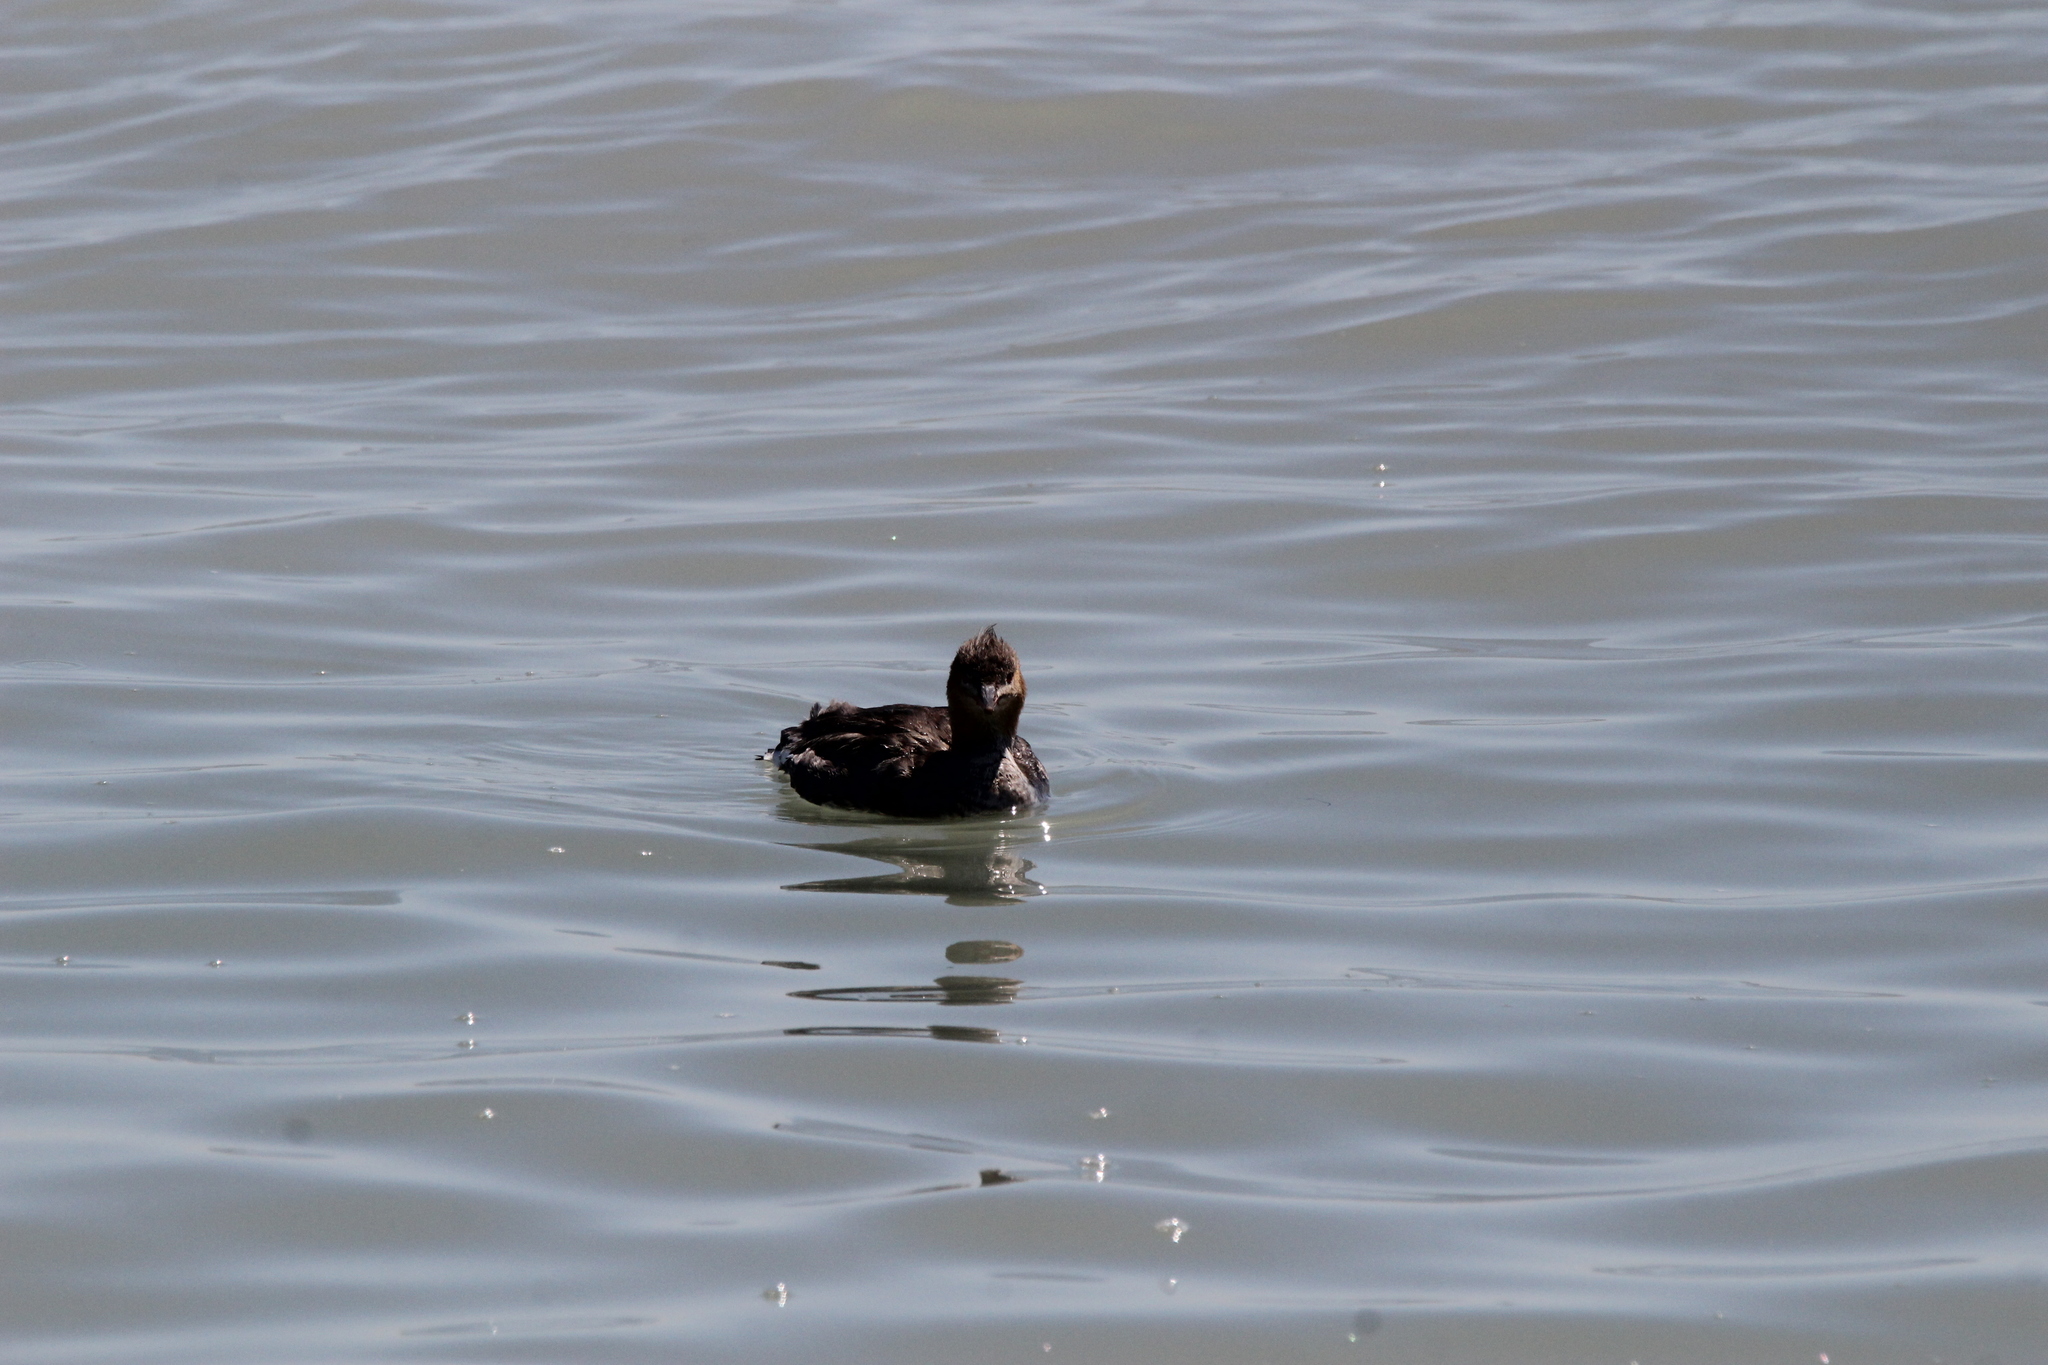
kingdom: Animalia
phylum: Chordata
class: Aves
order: Podicipediformes
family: Podicipedidae
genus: Podiceps
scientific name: Podiceps auritus
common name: Horned grebe
